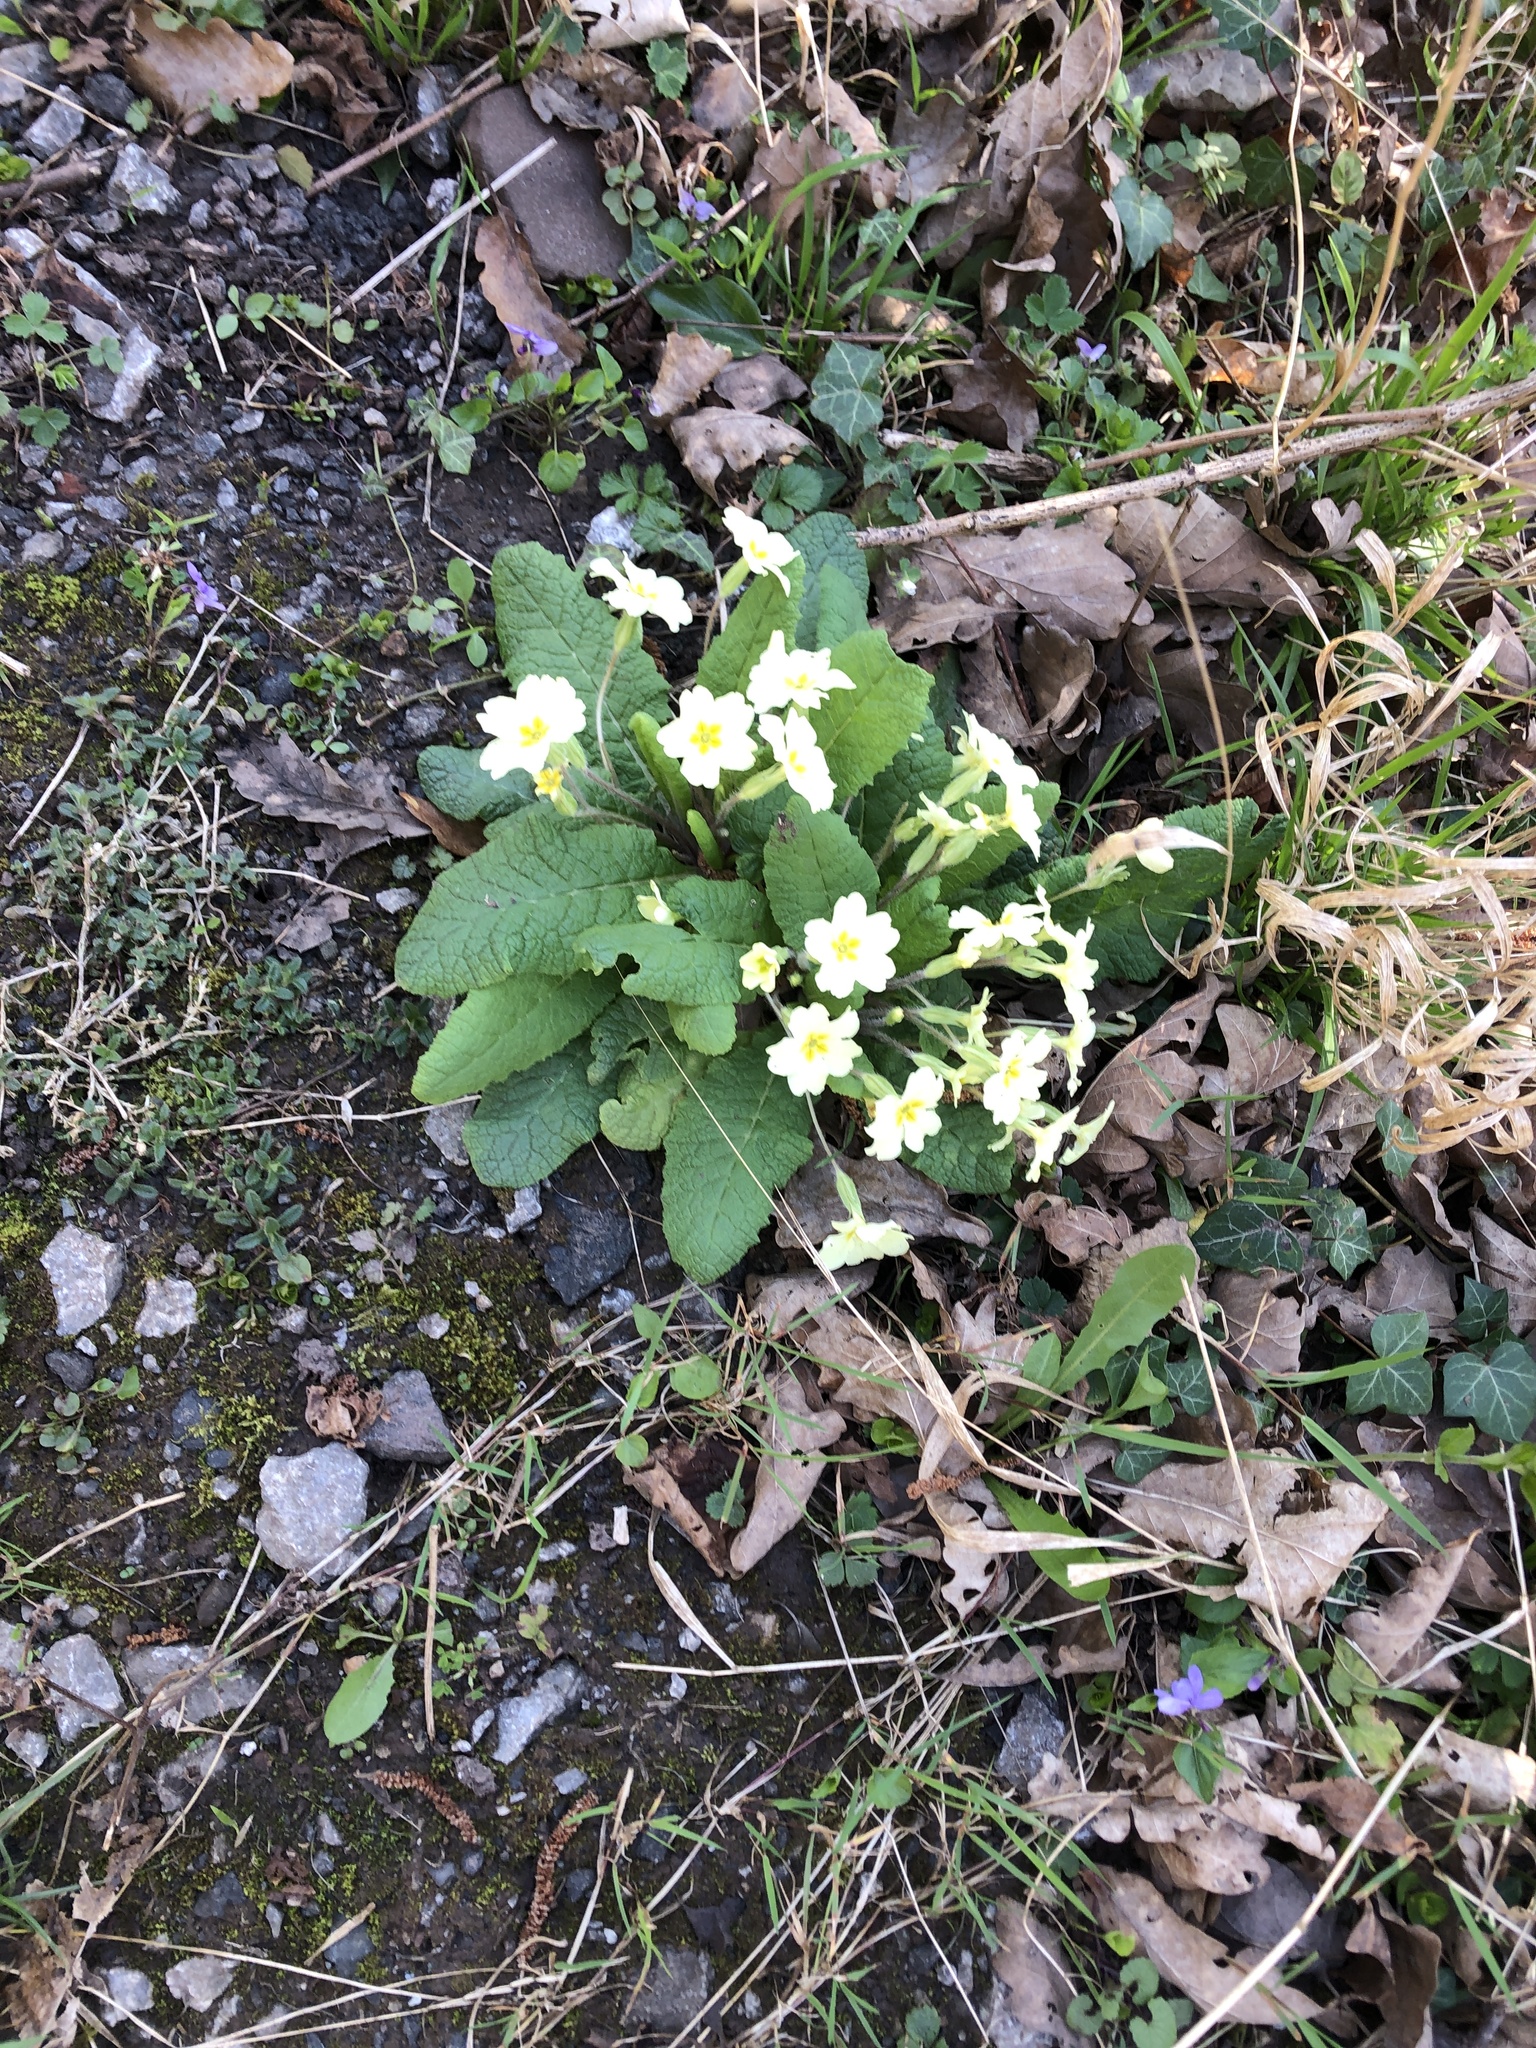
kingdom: Plantae
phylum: Tracheophyta
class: Magnoliopsida
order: Ericales
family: Primulaceae
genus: Primula
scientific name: Primula vulgaris
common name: Primrose
